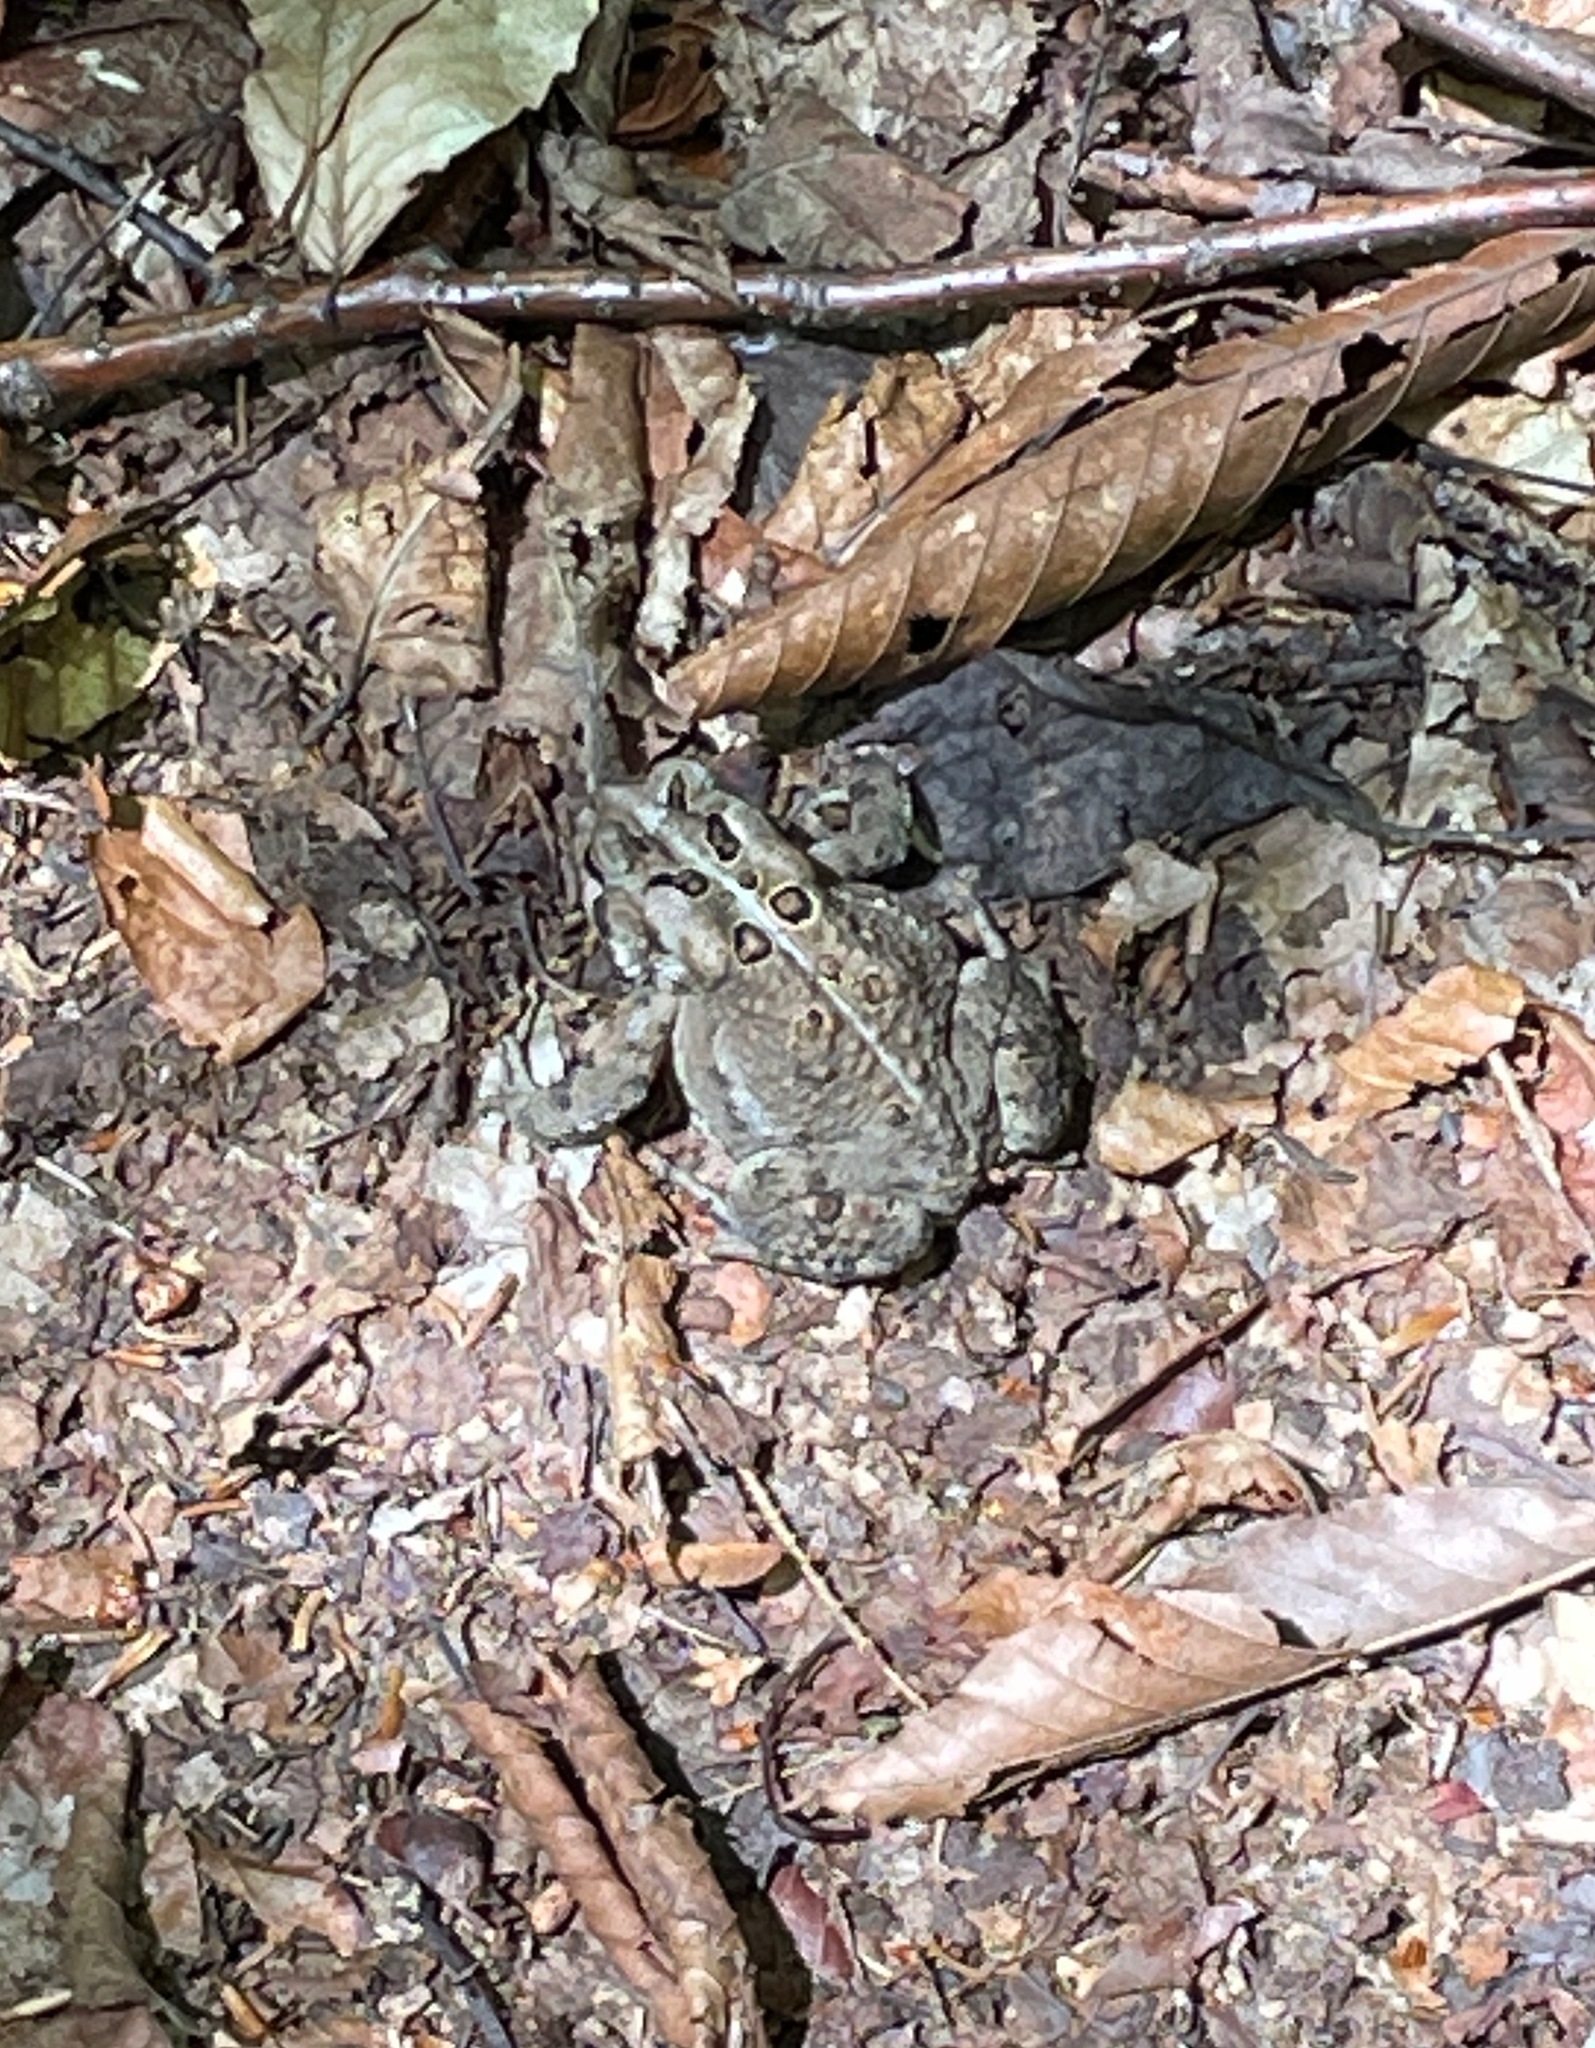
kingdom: Animalia
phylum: Chordata
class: Amphibia
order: Anura
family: Bufonidae
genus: Anaxyrus
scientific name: Anaxyrus americanus
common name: American toad
